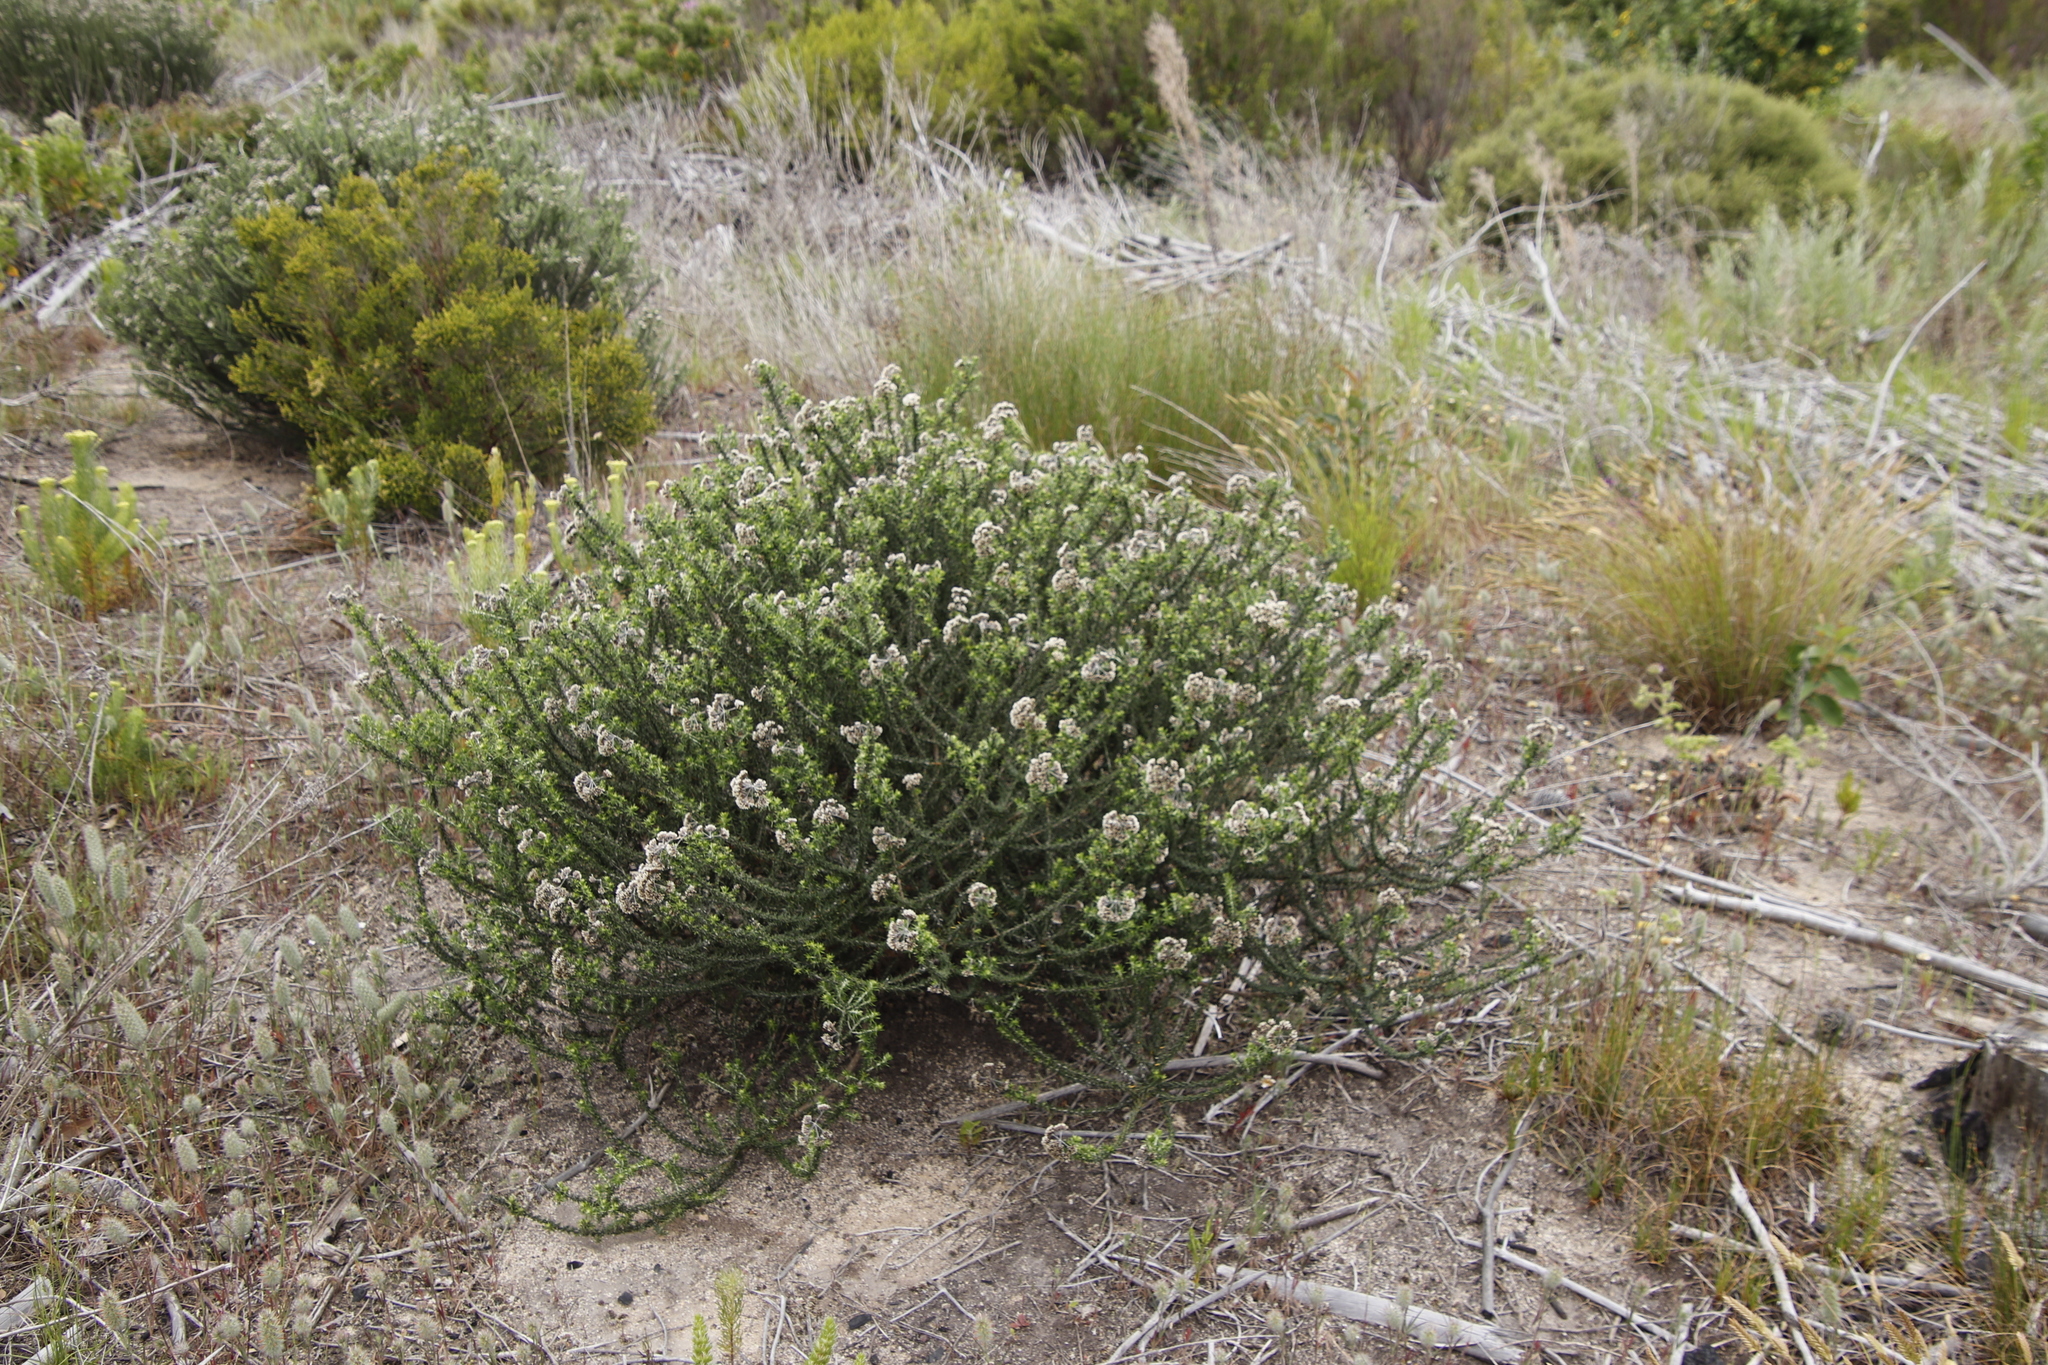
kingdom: Plantae
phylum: Tracheophyta
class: Magnoliopsida
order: Asterales
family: Asteraceae
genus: Metalasia
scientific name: Metalasia densa
